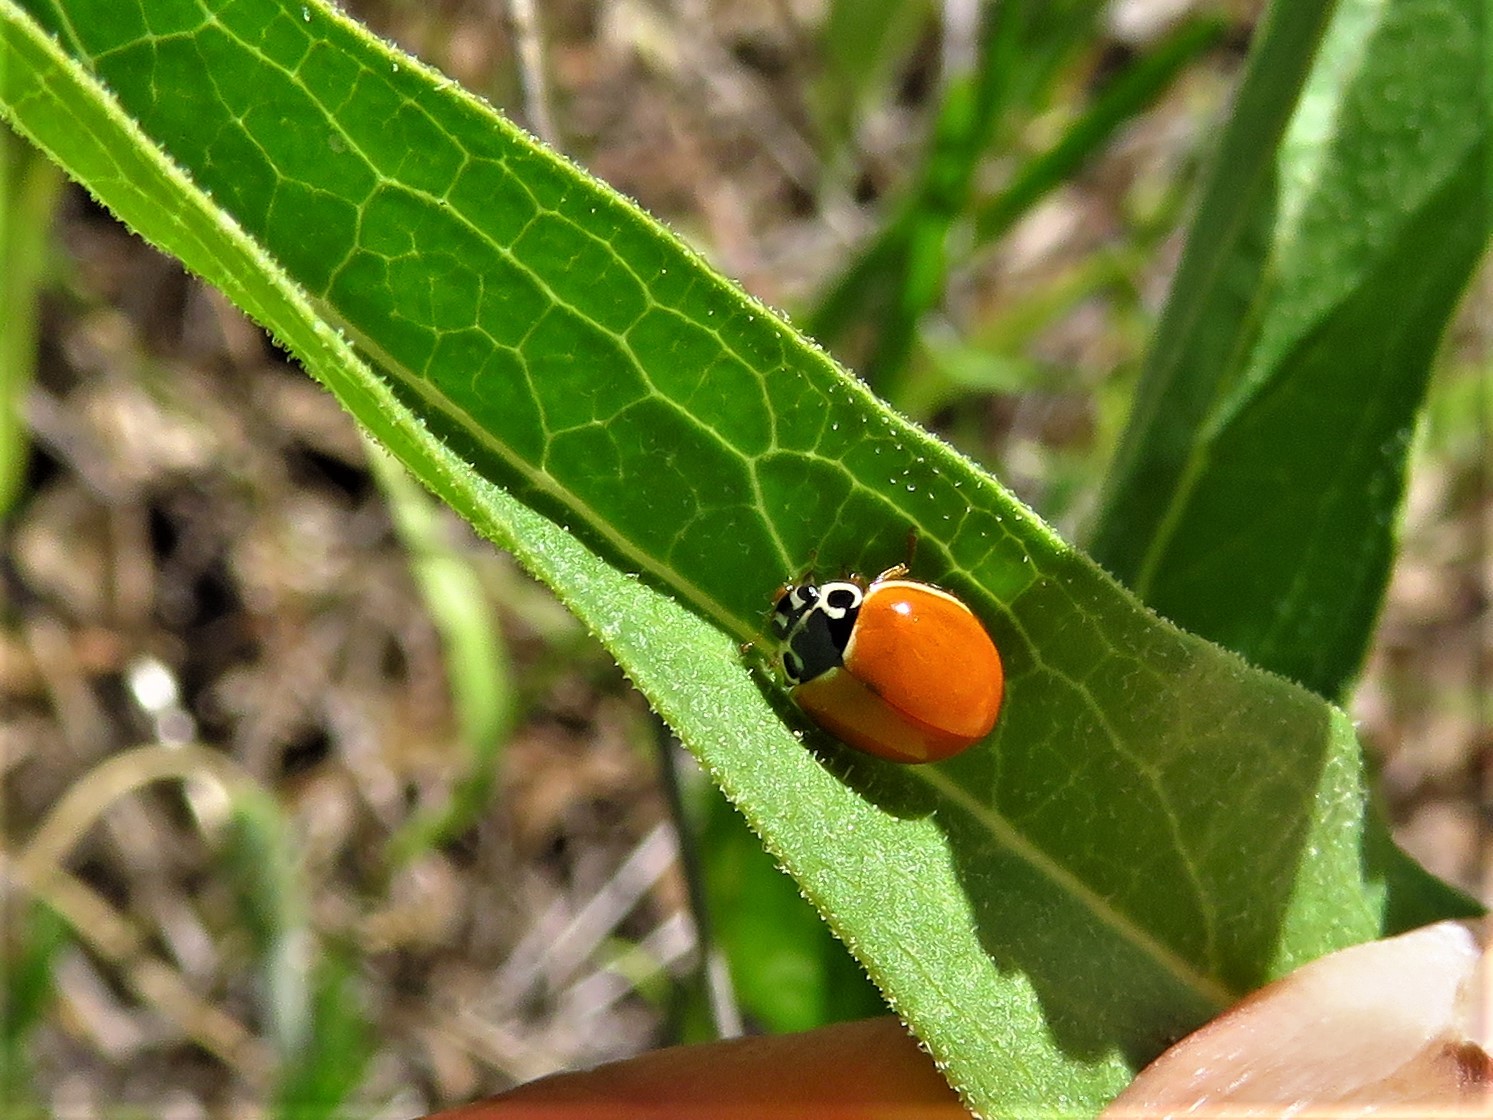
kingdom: Animalia
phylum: Arthropoda
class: Insecta
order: Coleoptera
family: Coccinellidae
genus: Cycloneda
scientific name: Cycloneda munda
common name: Polished lady beetle
